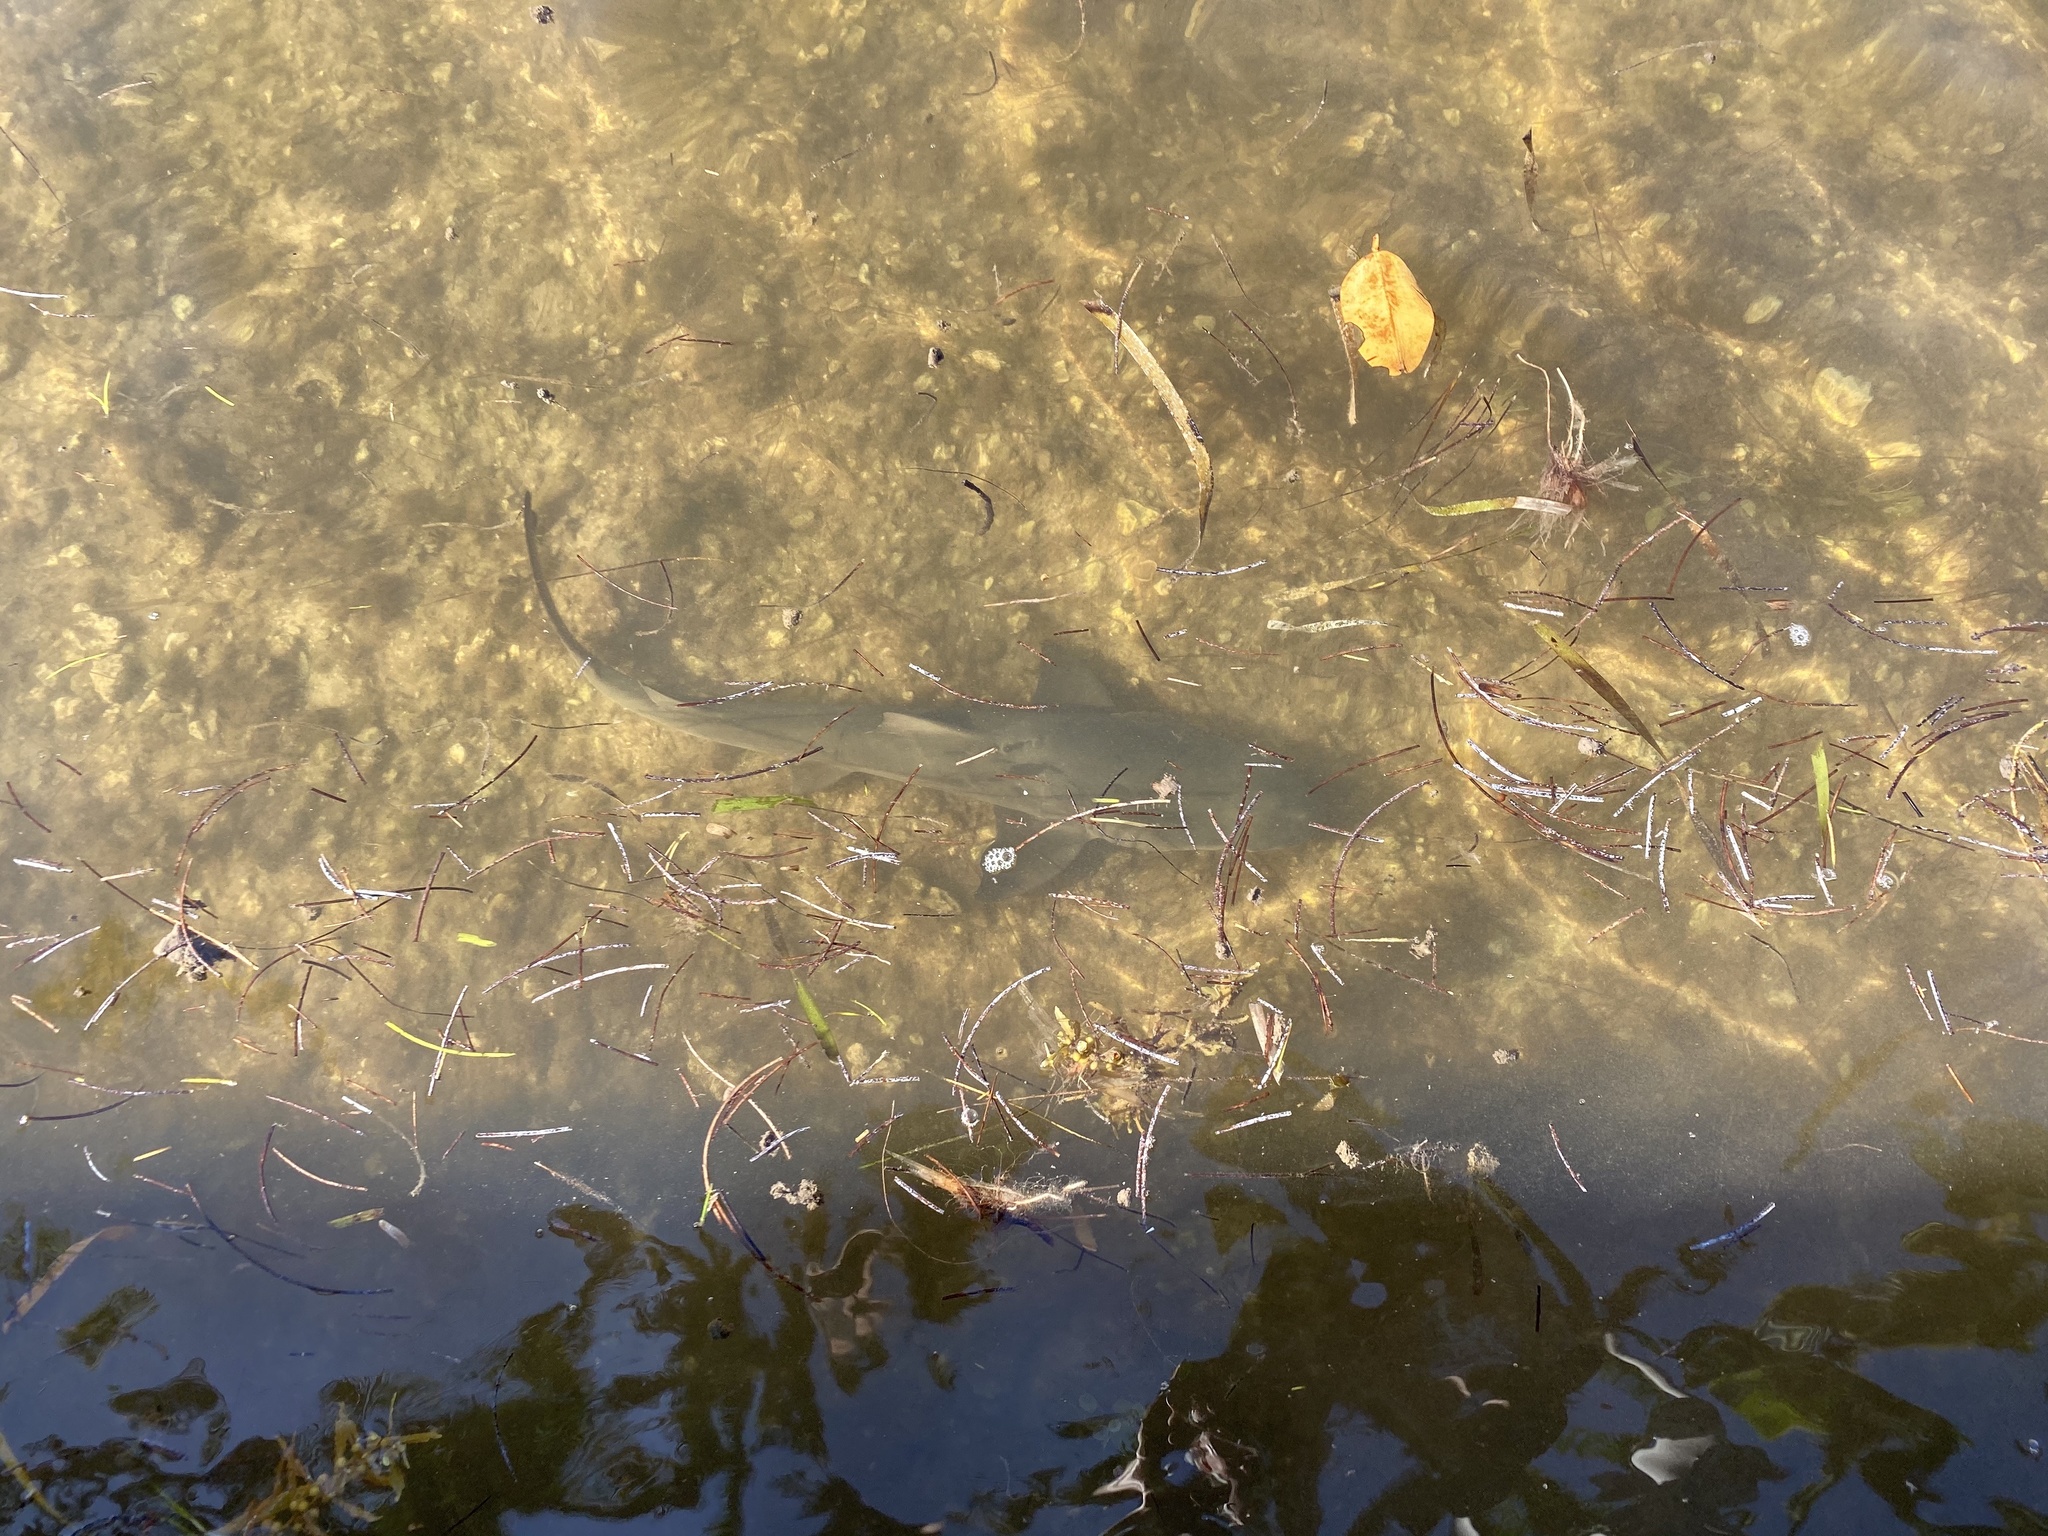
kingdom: Animalia
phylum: Chordata
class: Elasmobranchii
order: Carcharhiniformes
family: Carcharhinidae
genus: Negaprion
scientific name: Negaprion brevirostris
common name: Lemon shark
